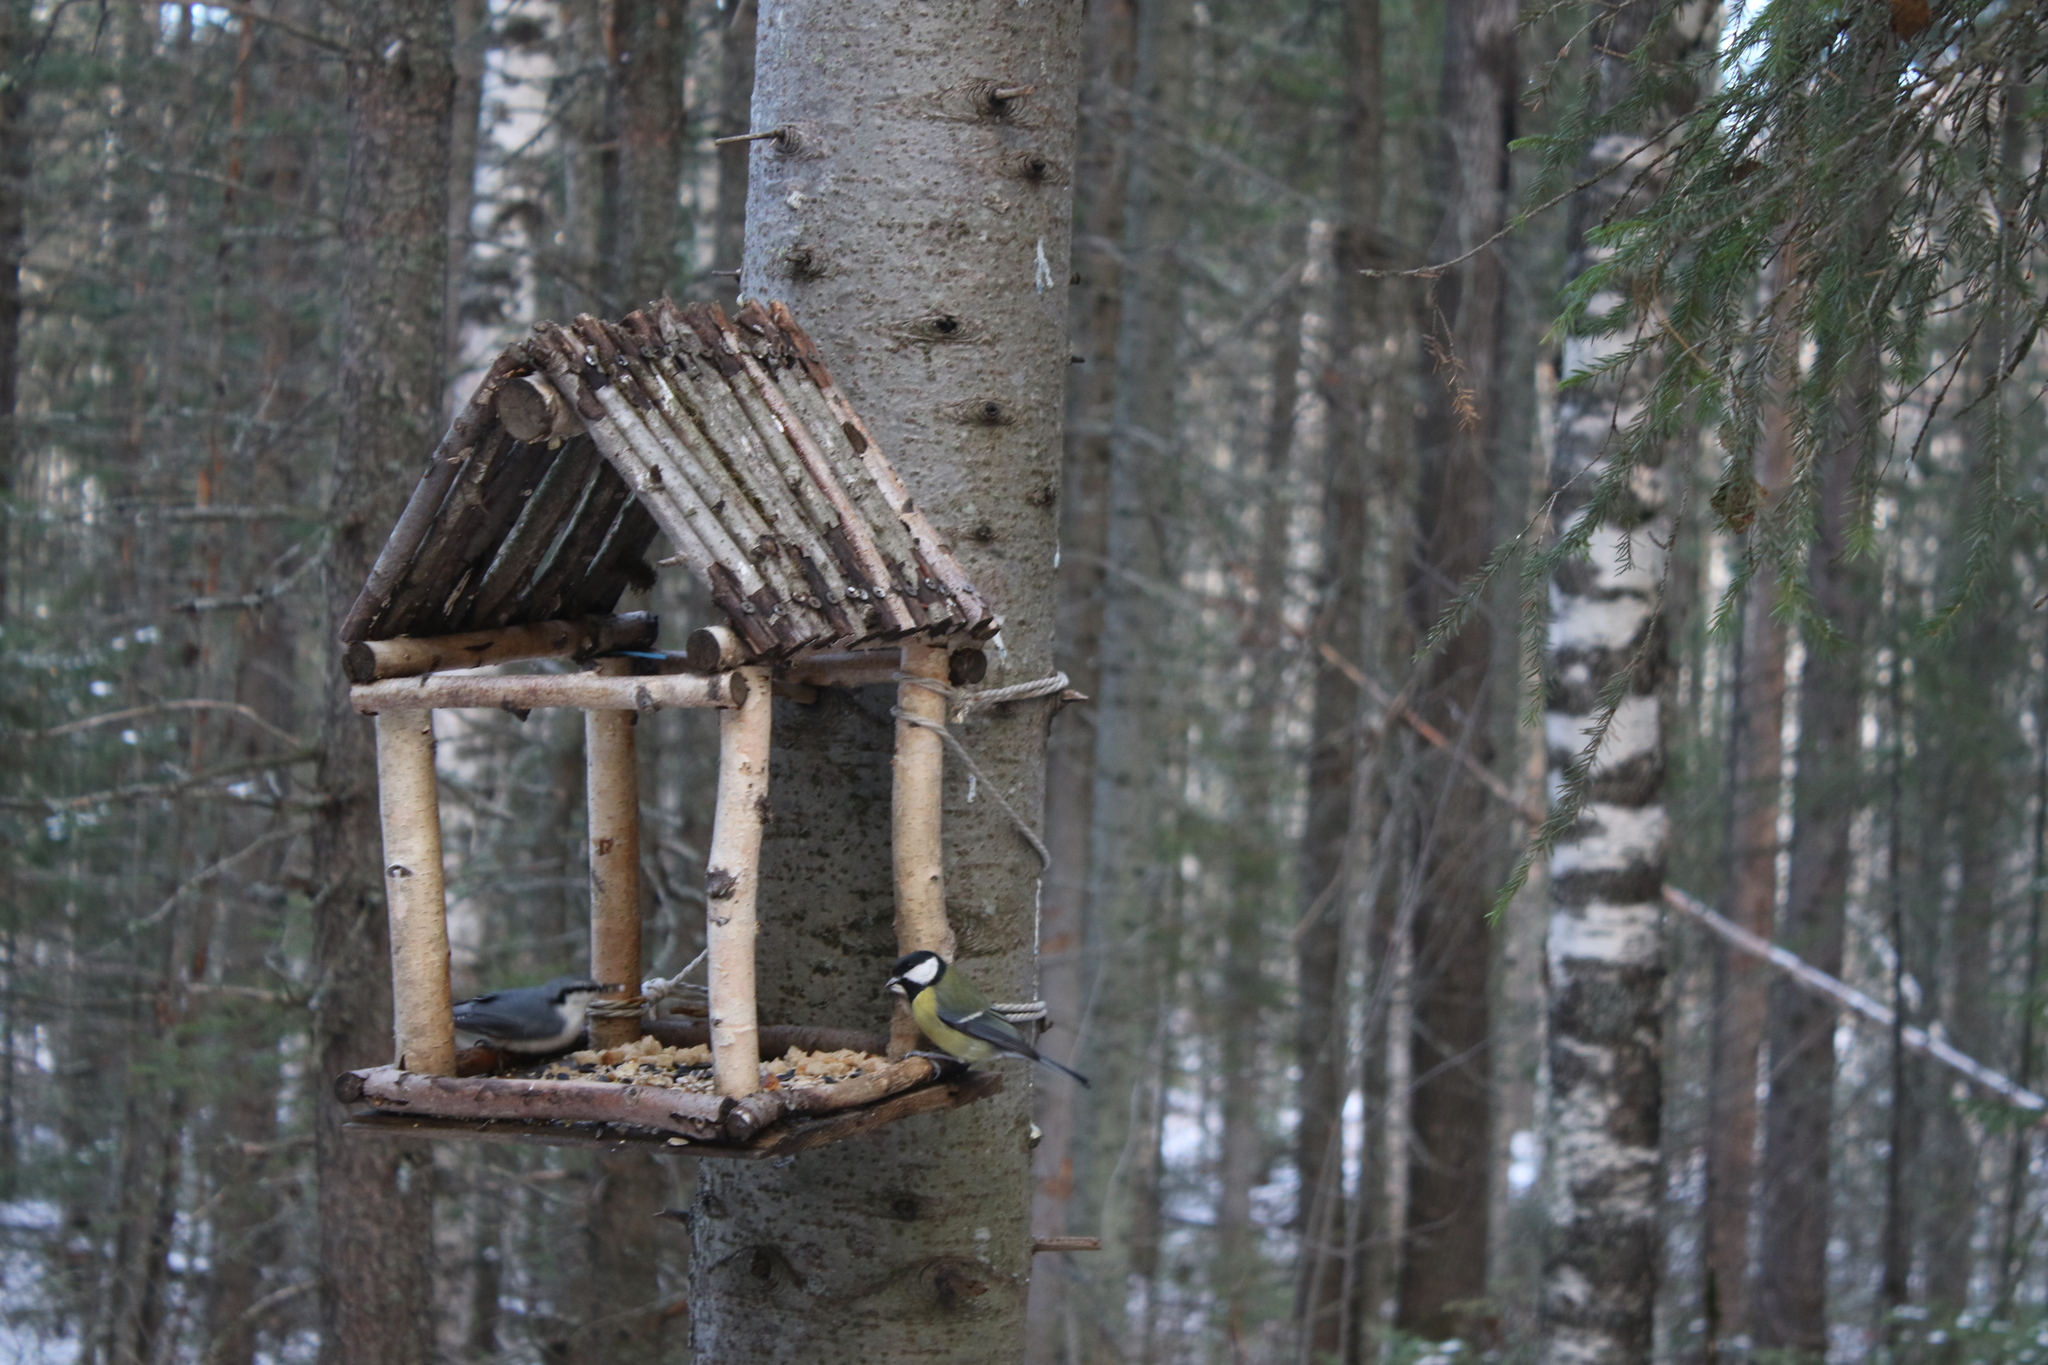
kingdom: Animalia
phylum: Chordata
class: Aves
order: Passeriformes
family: Paridae
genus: Parus
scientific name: Parus major
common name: Great tit
